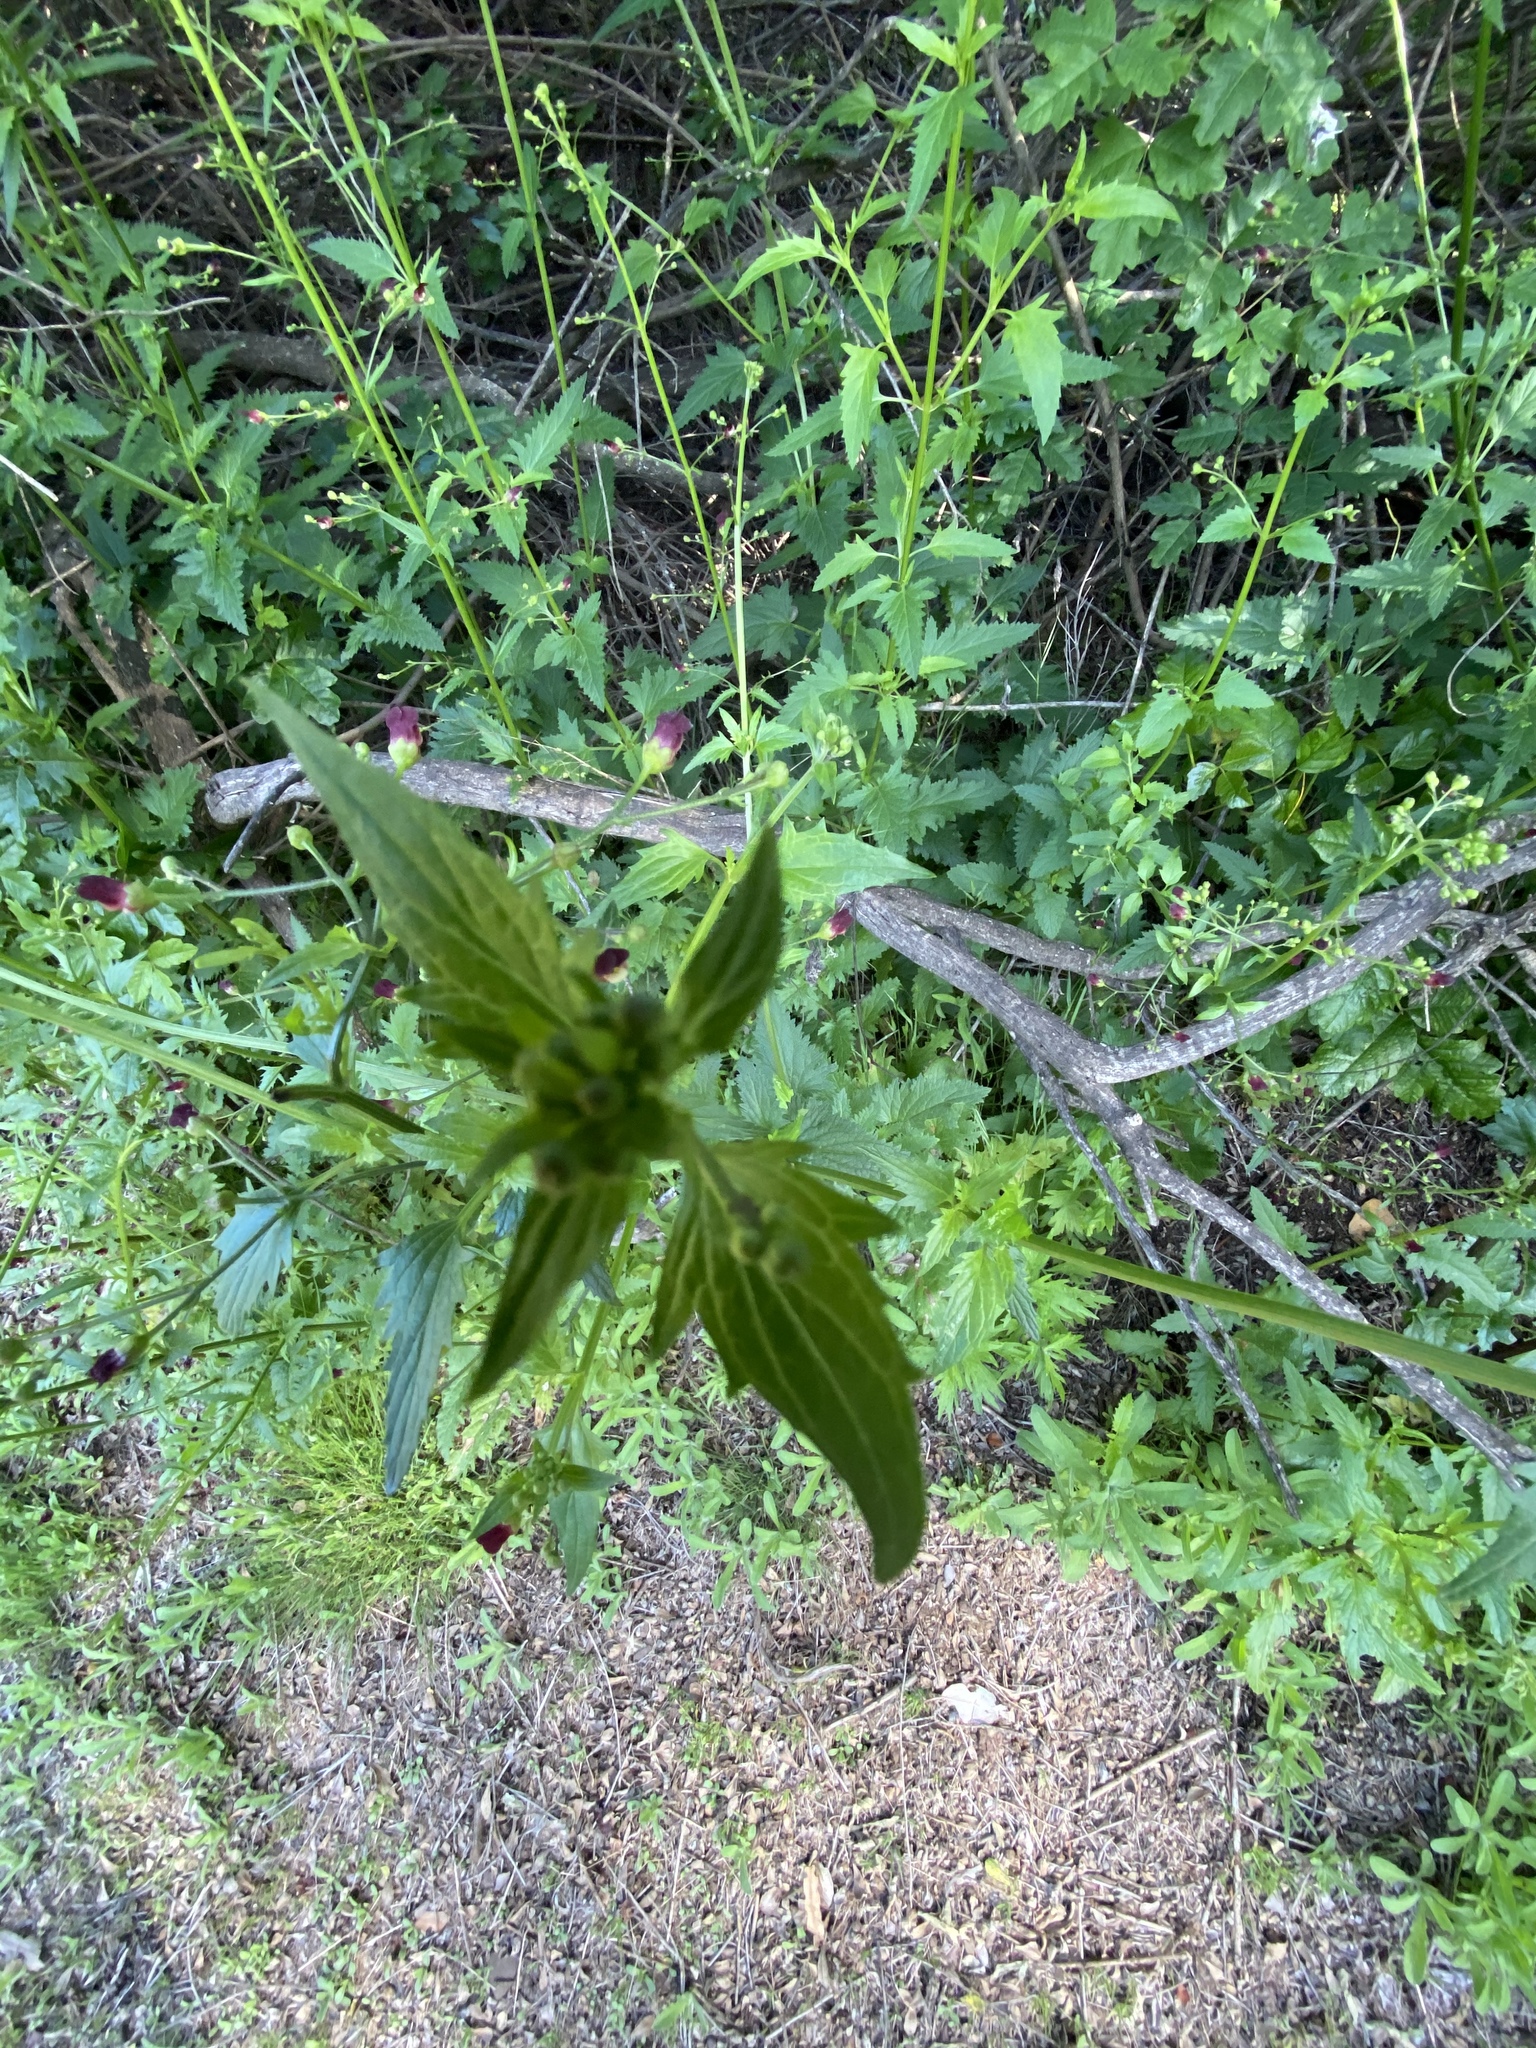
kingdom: Plantae
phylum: Tracheophyta
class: Magnoliopsida
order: Lamiales
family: Scrophulariaceae
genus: Scrophularia
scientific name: Scrophularia californica
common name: California figwort
